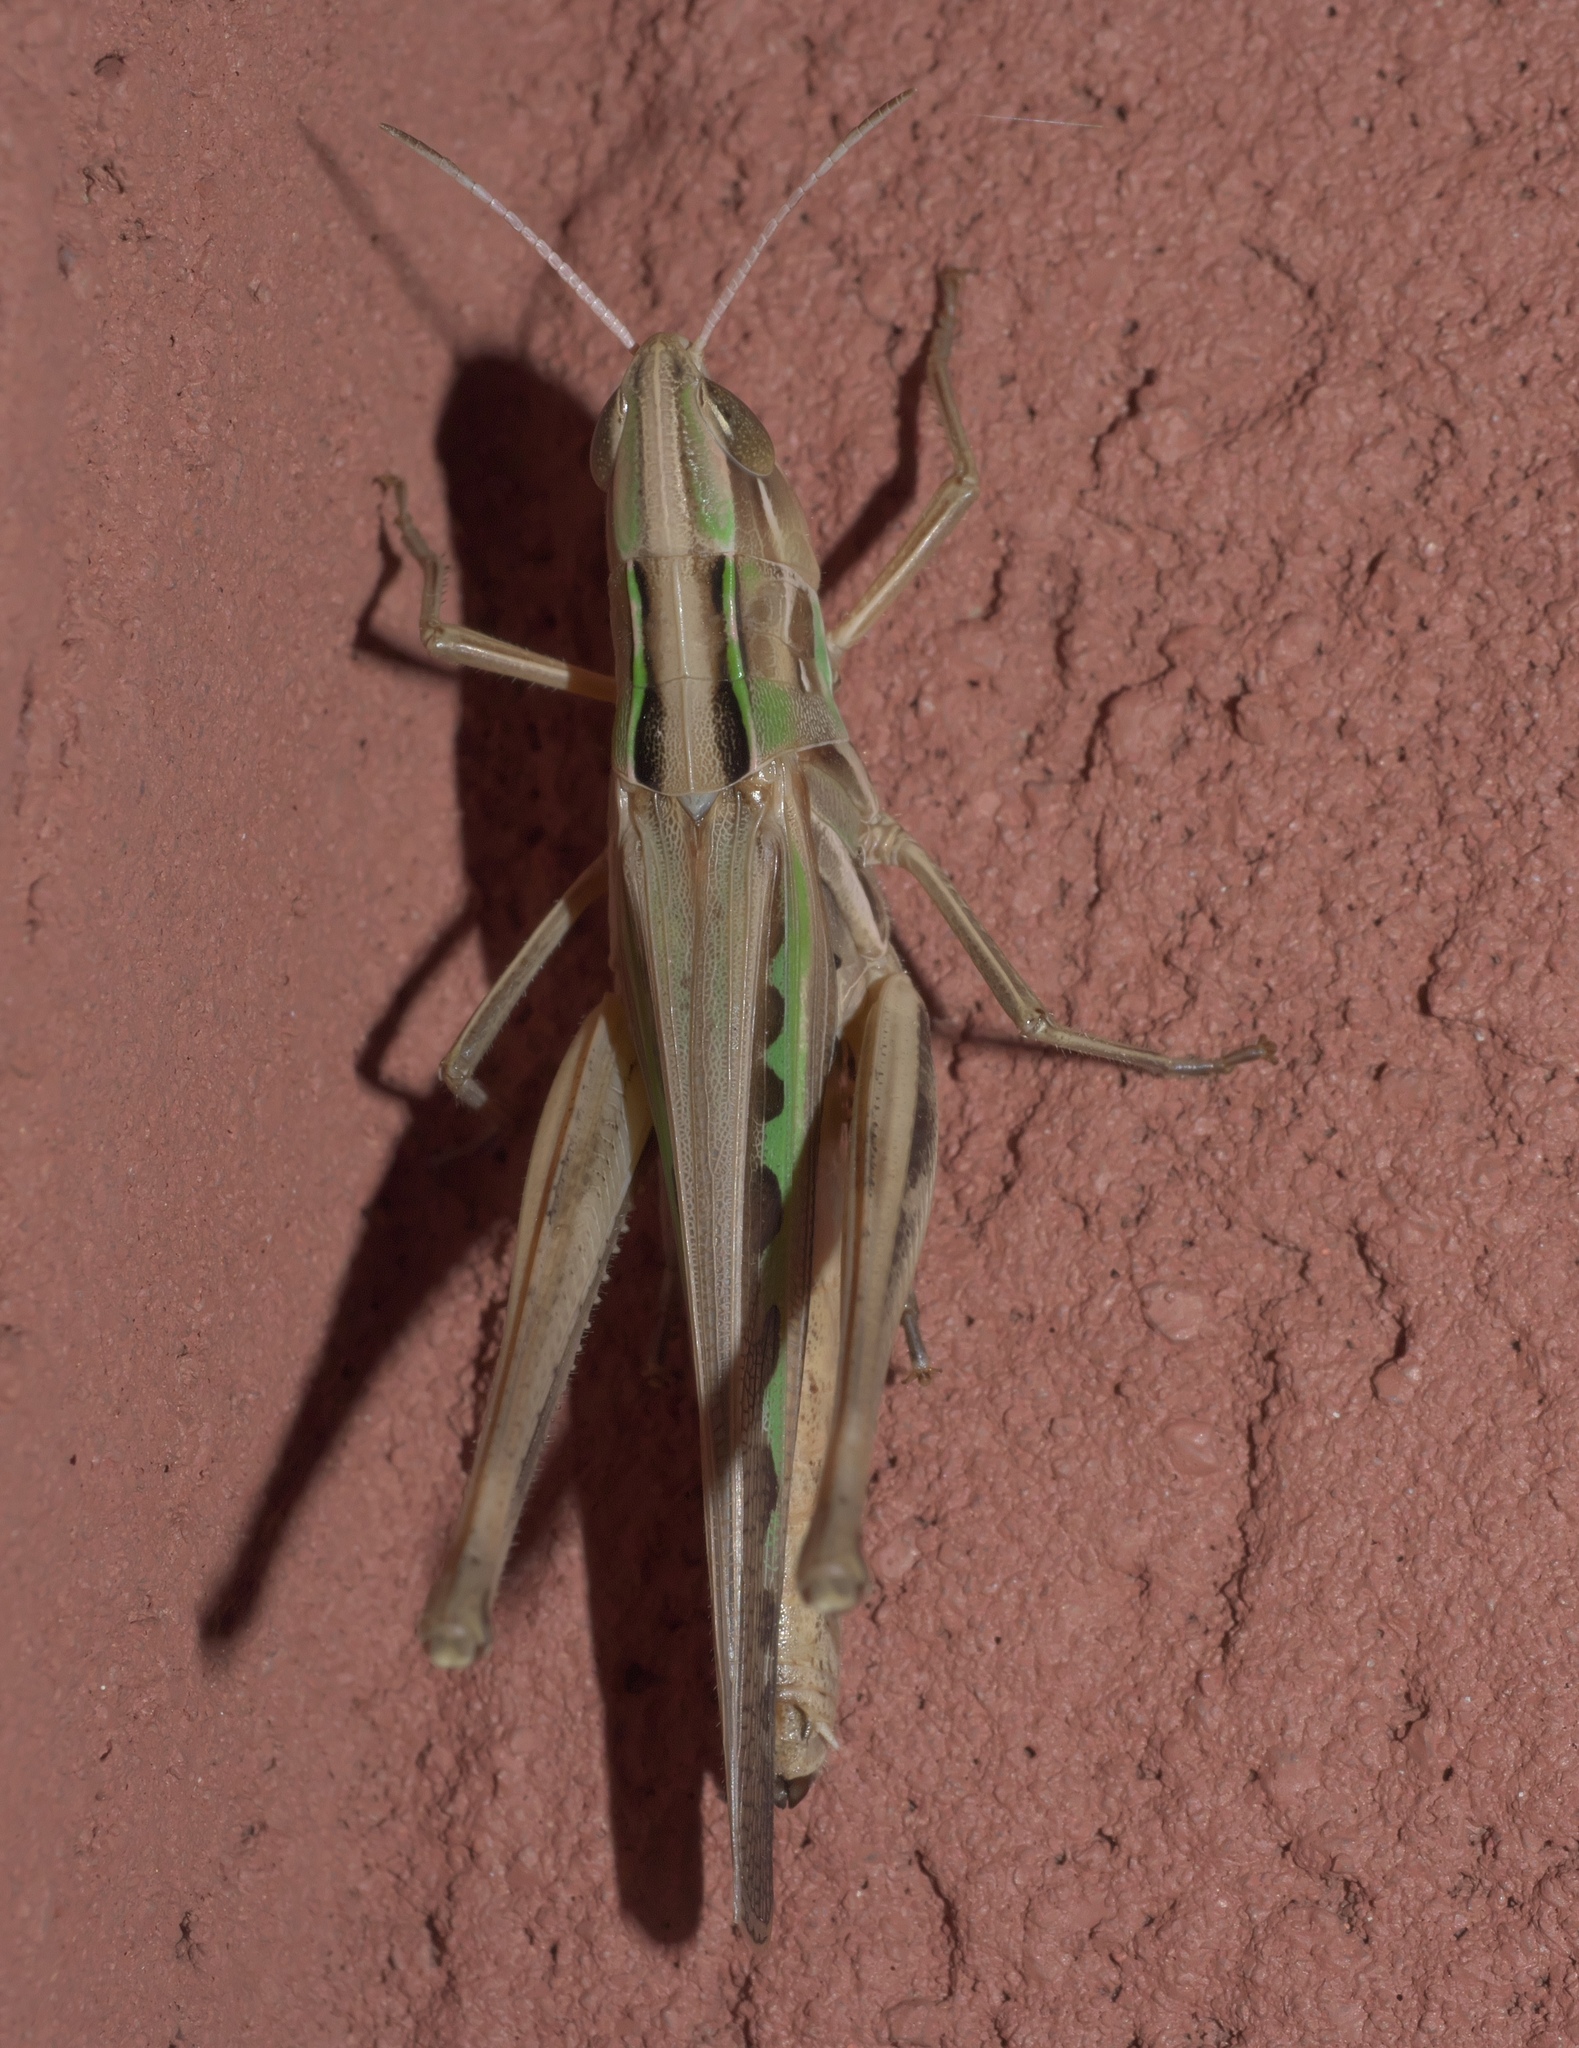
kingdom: Animalia
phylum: Arthropoda
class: Insecta
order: Orthoptera
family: Acrididae
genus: Syrbula
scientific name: Syrbula admirabilis
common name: Handsome grasshopper
